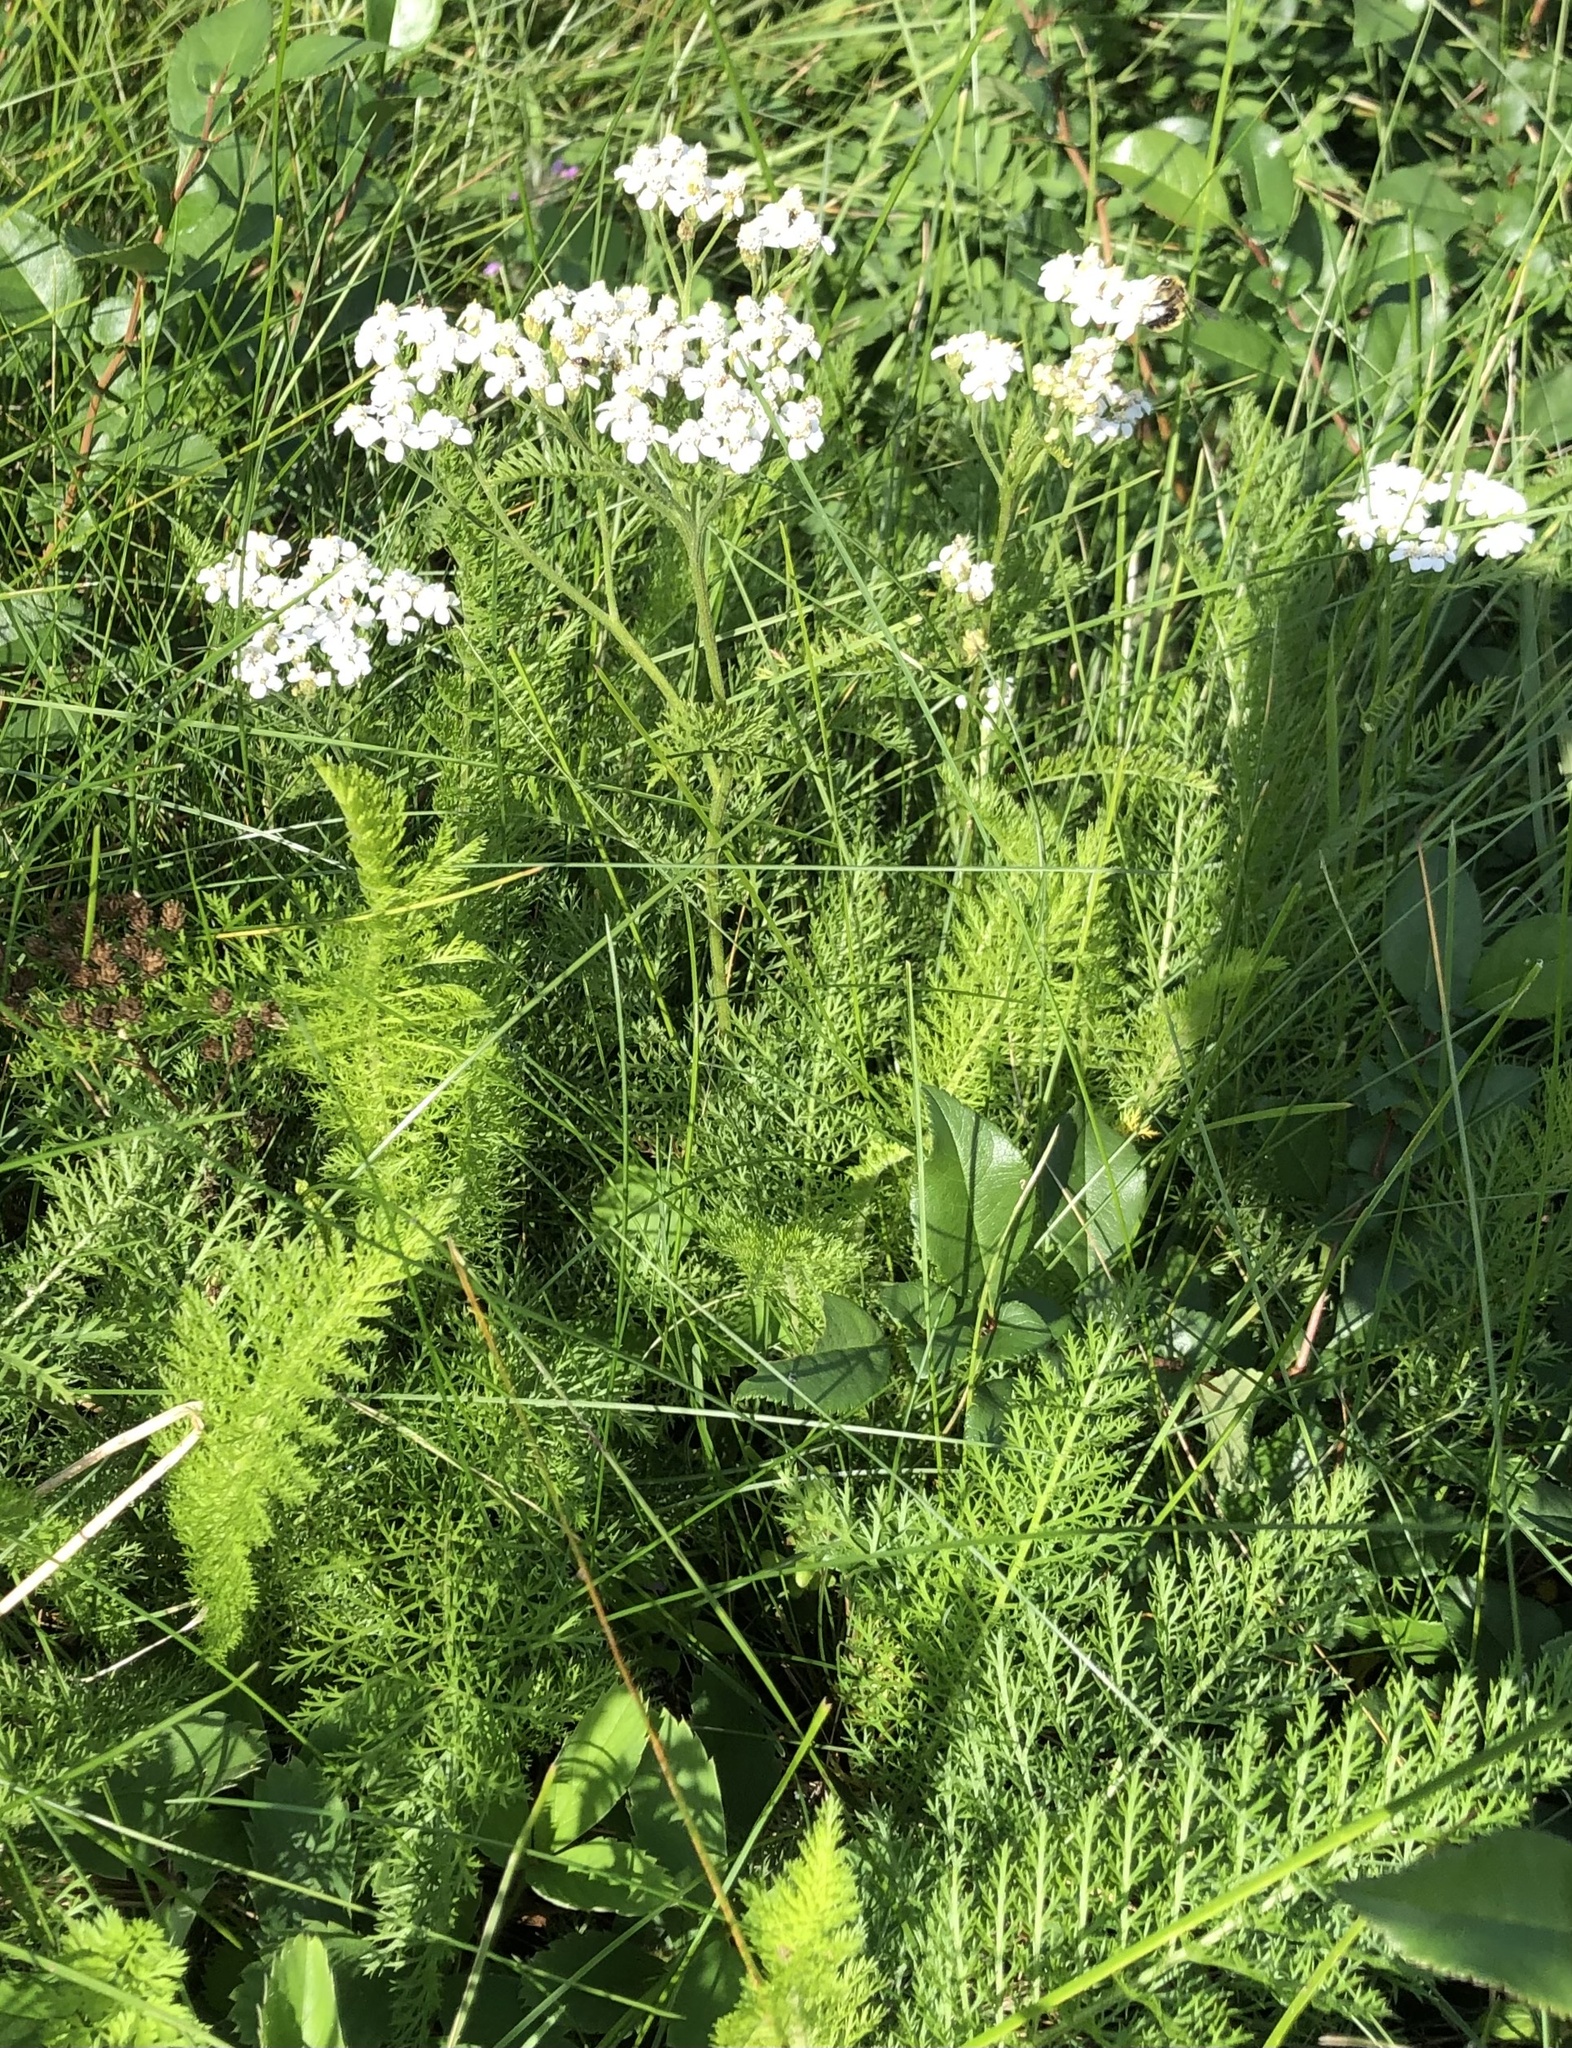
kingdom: Plantae
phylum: Tracheophyta
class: Magnoliopsida
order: Asterales
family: Asteraceae
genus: Achillea
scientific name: Achillea millefolium
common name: Yarrow
